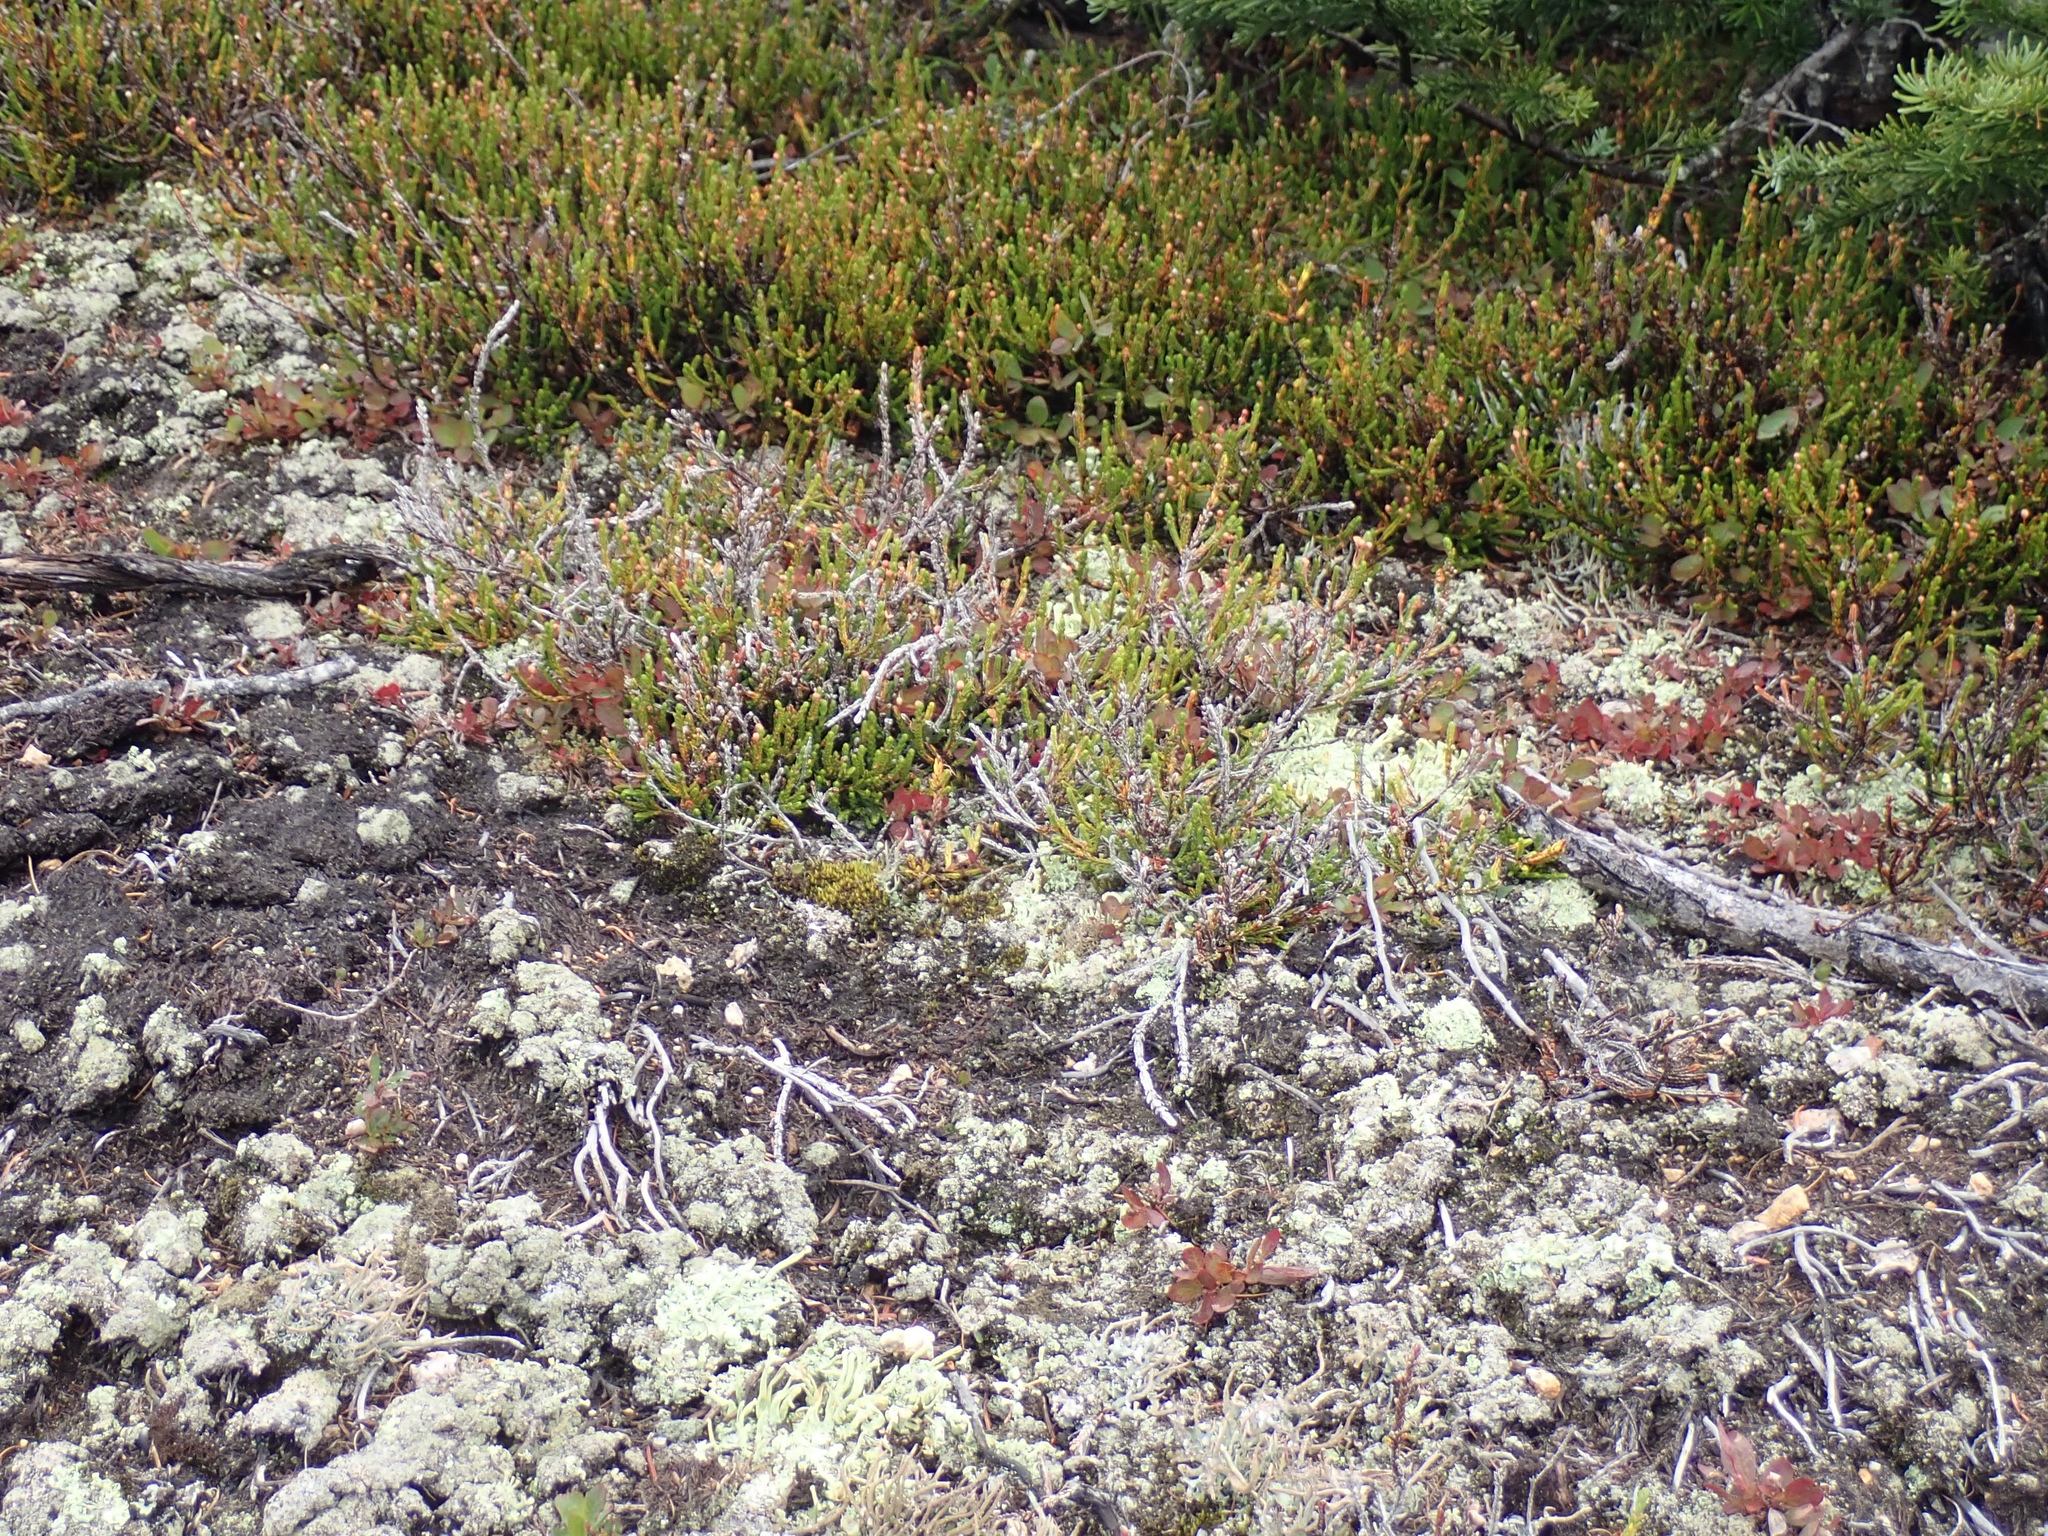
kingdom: Plantae
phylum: Tracheophyta
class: Magnoliopsida
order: Ericales
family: Ericaceae
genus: Cassiope
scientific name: Cassiope mertensiana
